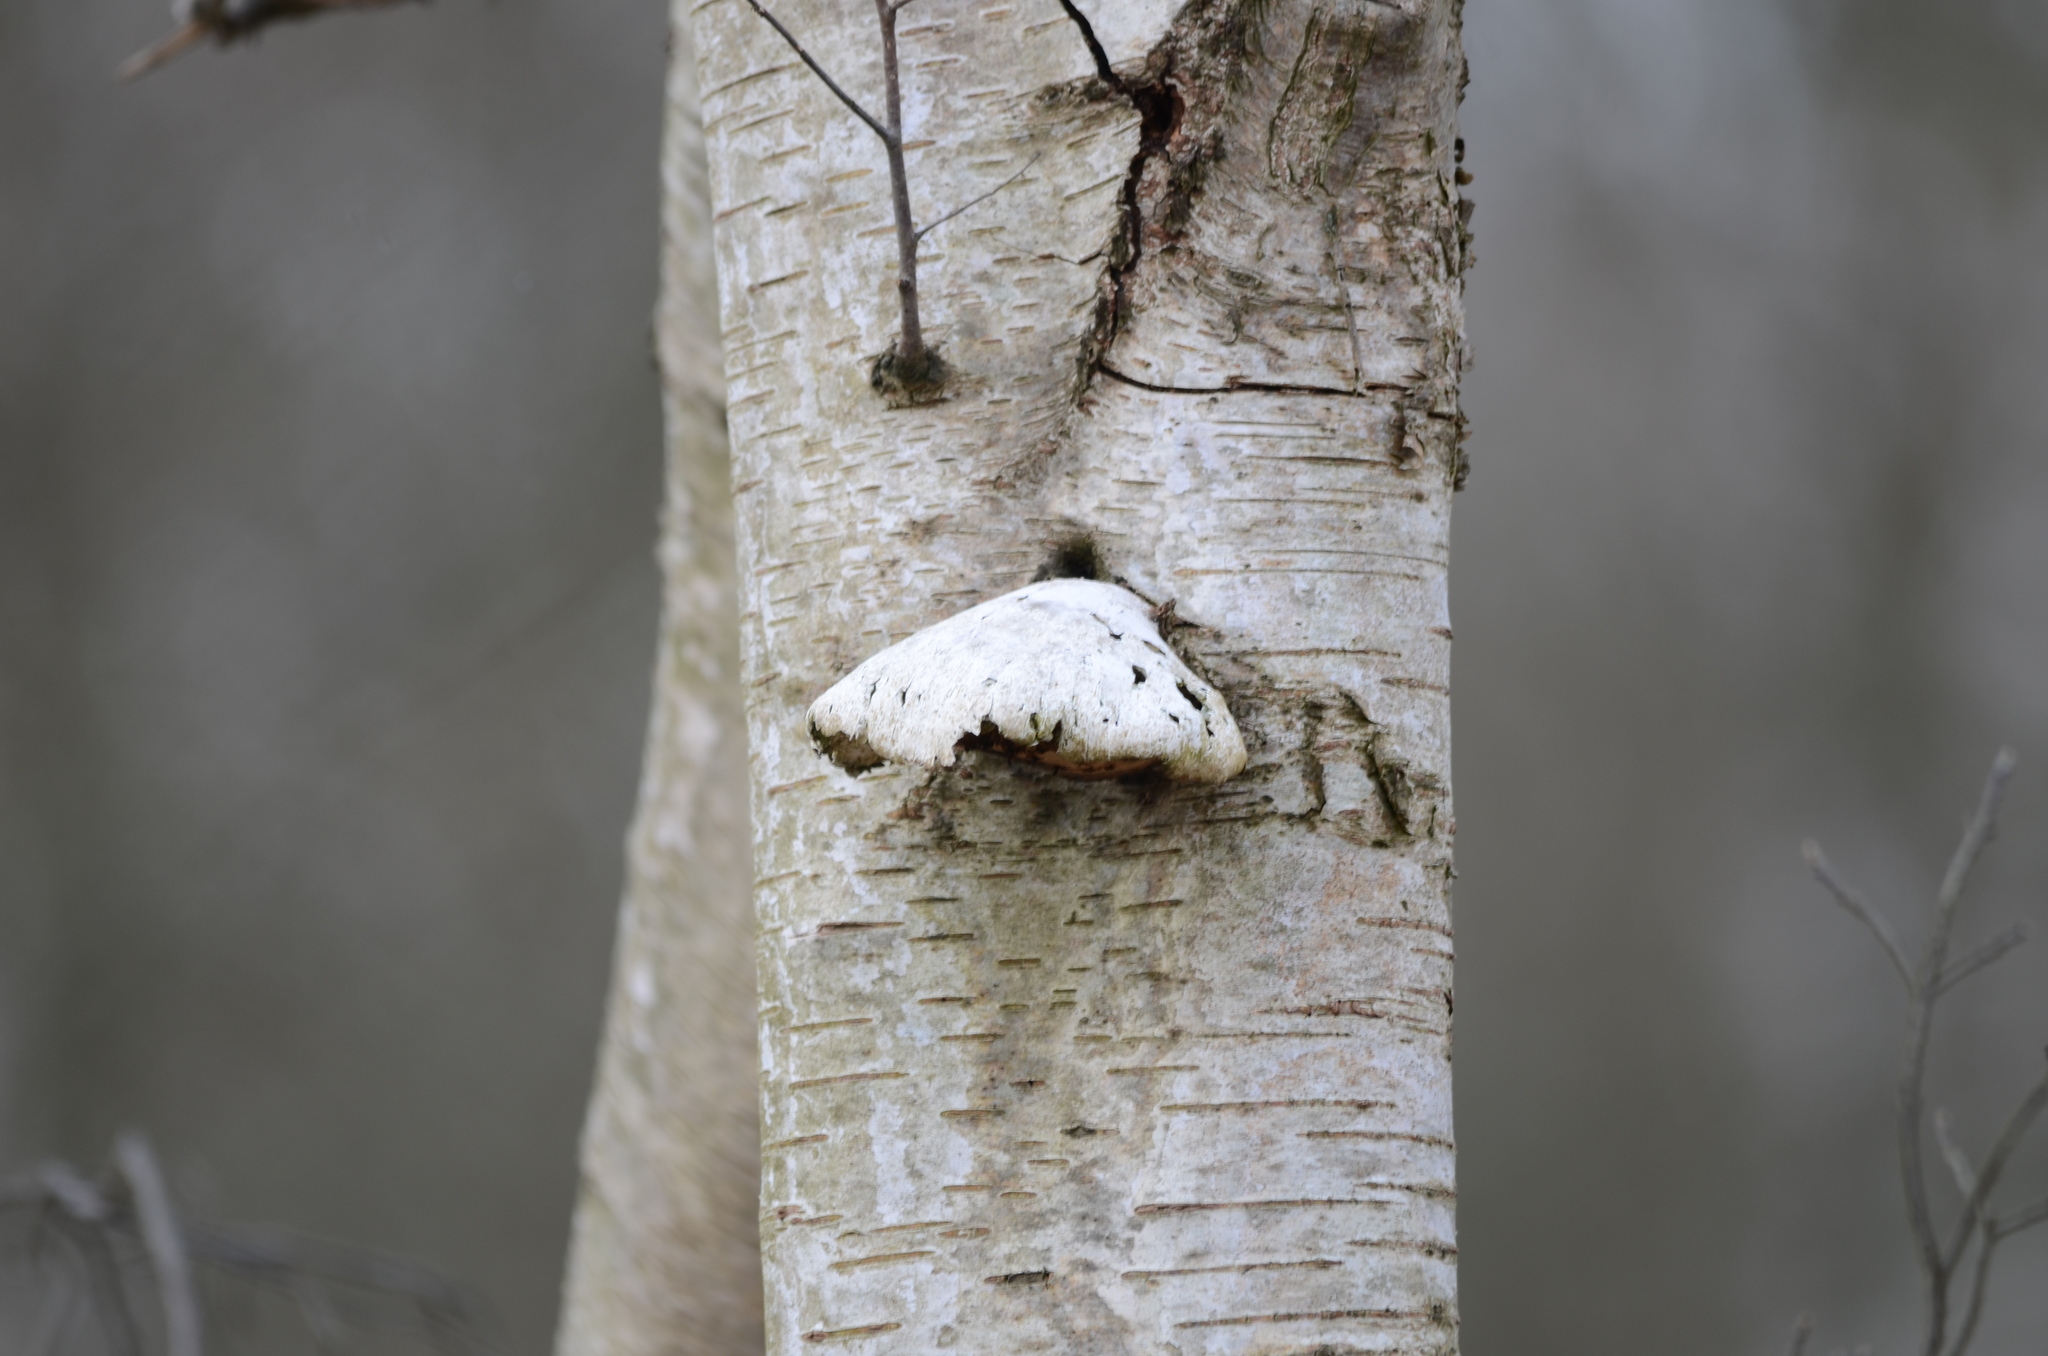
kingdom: Fungi
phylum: Basidiomycota
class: Agaricomycetes
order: Polyporales
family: Fomitopsidaceae
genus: Fomitopsis
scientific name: Fomitopsis betulina
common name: Birch polypore
